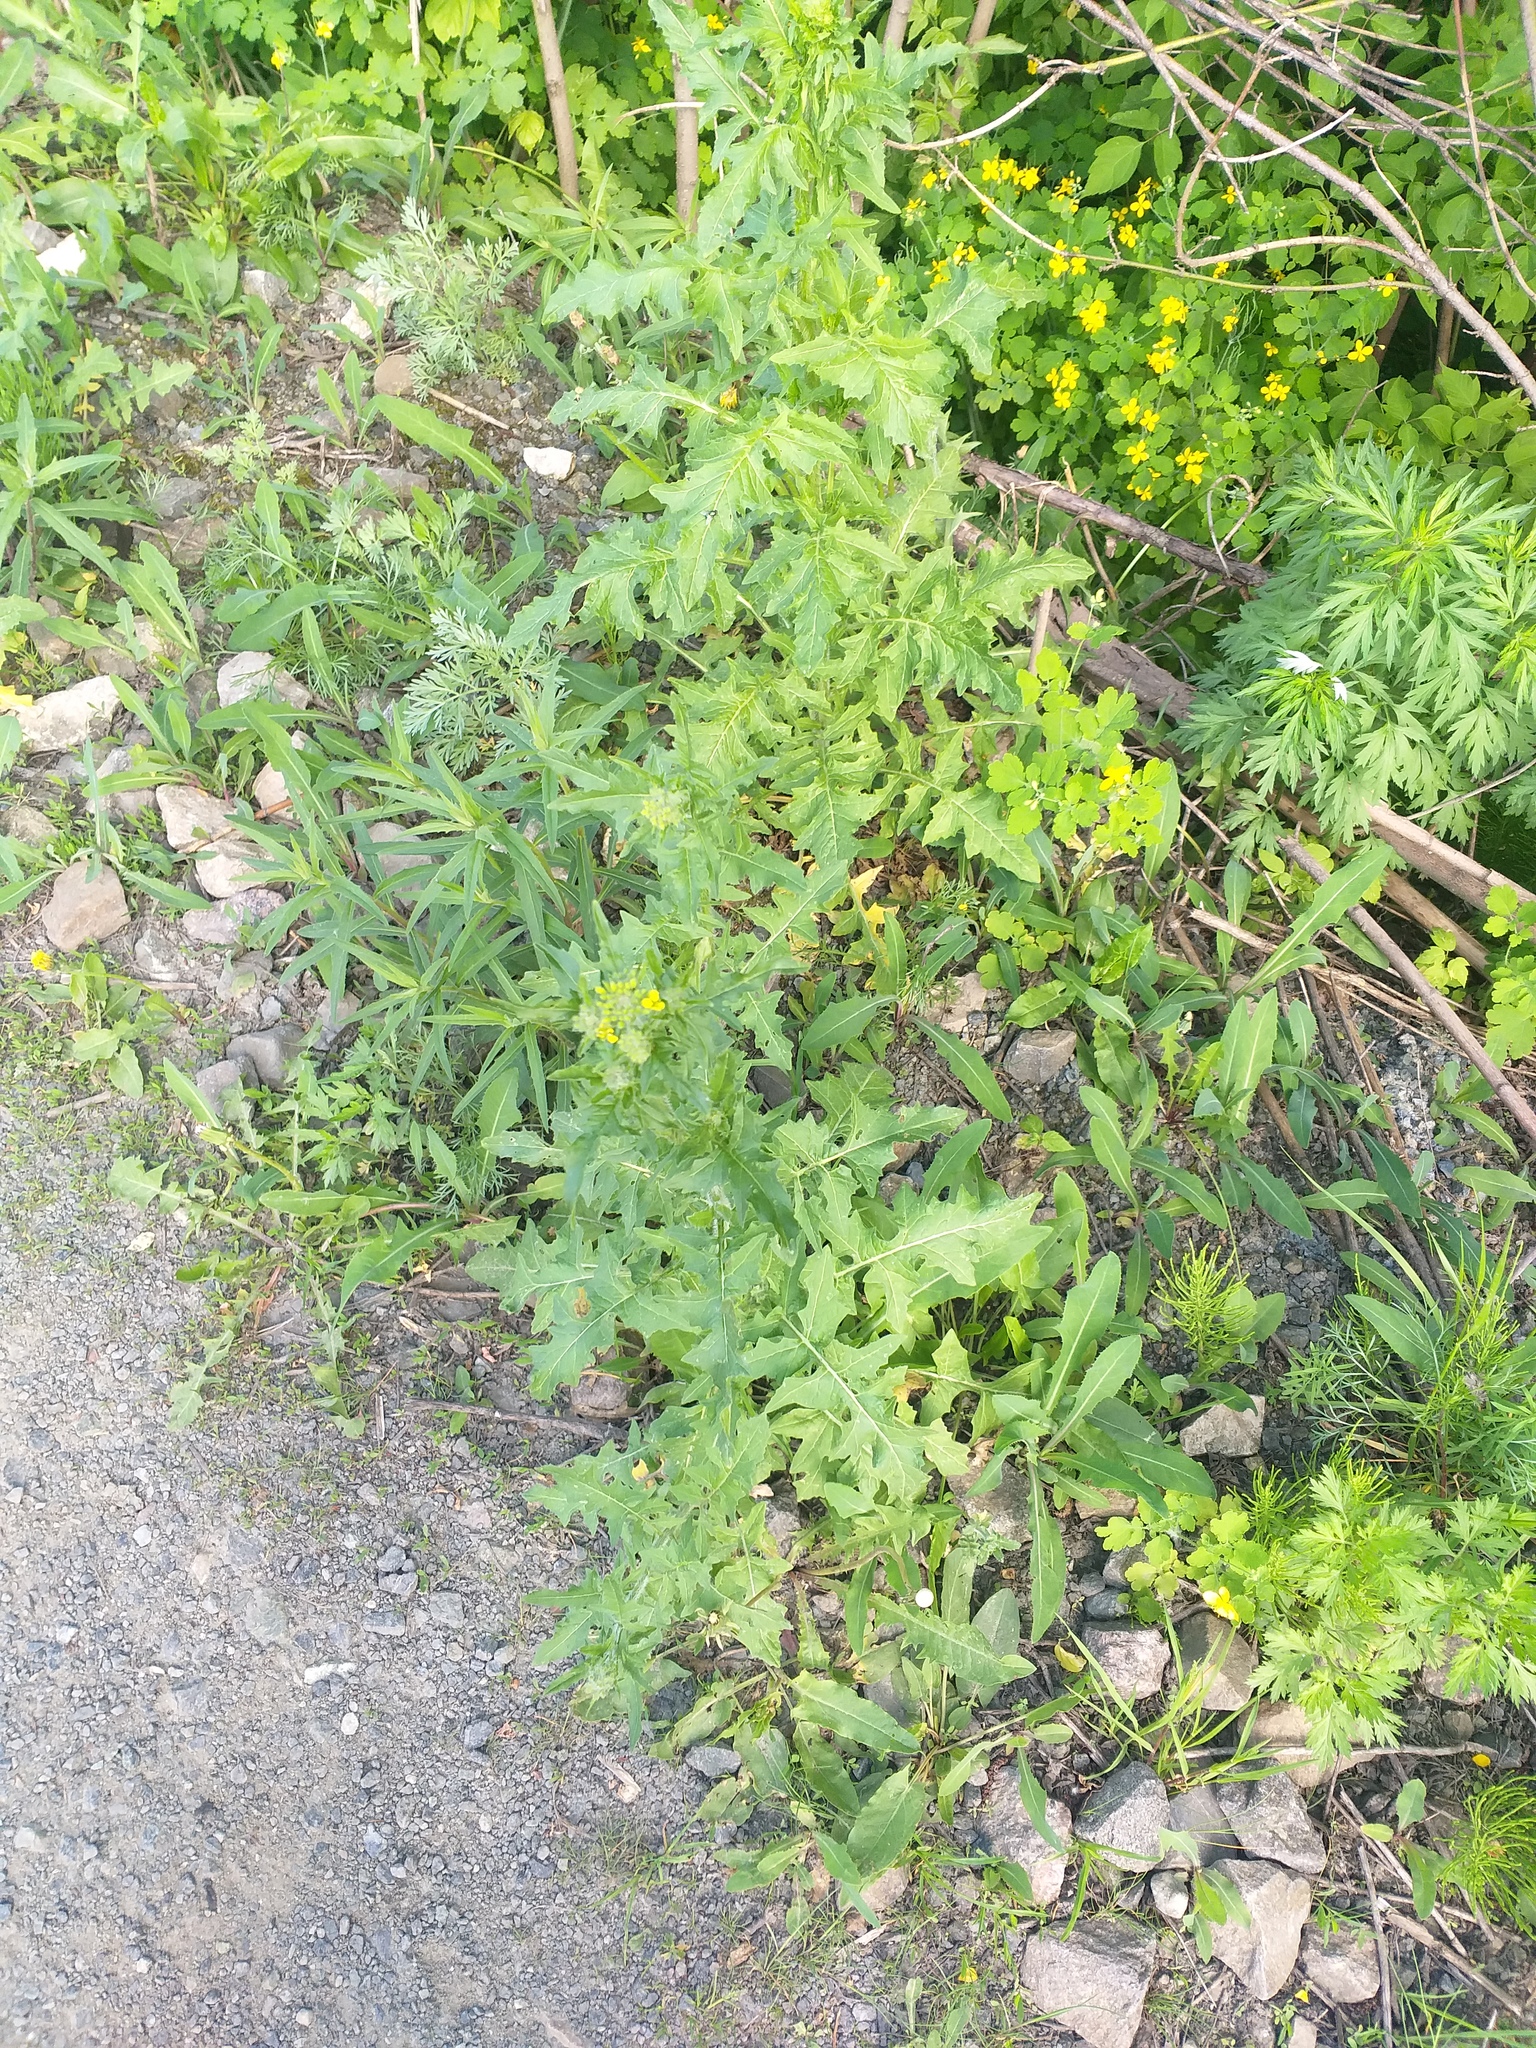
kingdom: Plantae
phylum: Tracheophyta
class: Magnoliopsida
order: Brassicales
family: Brassicaceae
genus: Sisymbrium
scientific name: Sisymbrium loeselii
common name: False london-rocket
